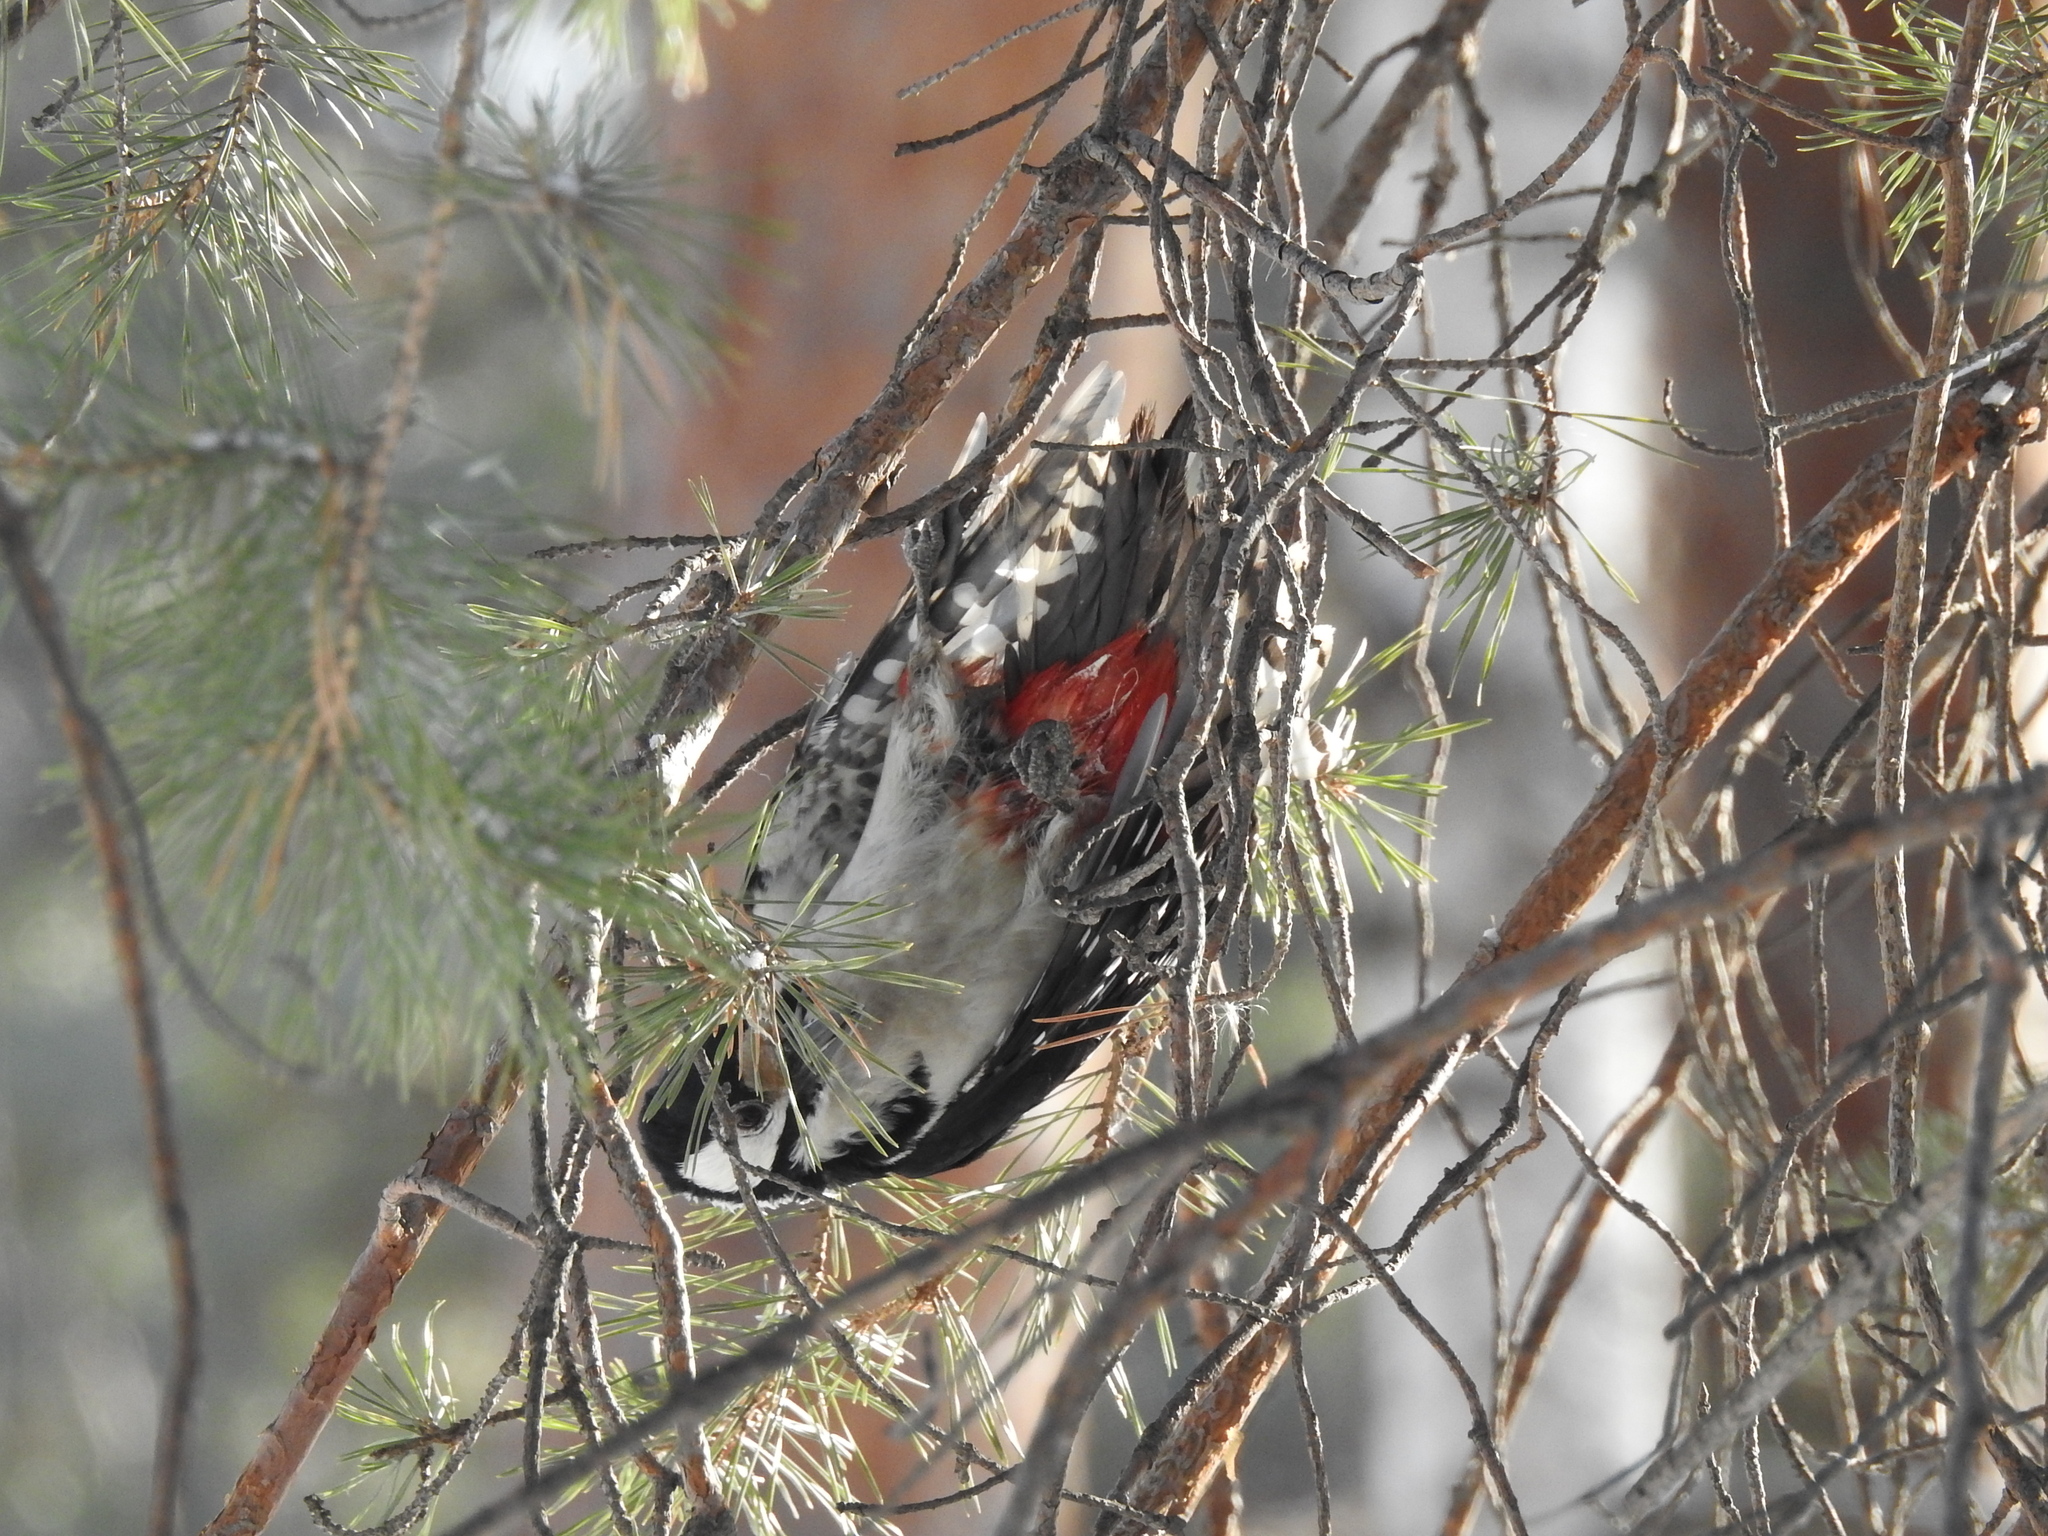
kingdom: Animalia
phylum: Chordata
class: Aves
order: Piciformes
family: Picidae
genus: Dendrocopos
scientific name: Dendrocopos major
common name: Great spotted woodpecker
